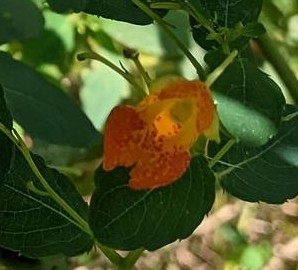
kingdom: Plantae
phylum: Tracheophyta
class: Magnoliopsida
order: Ericales
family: Balsaminaceae
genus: Impatiens
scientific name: Impatiens capensis
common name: Orange balsam
